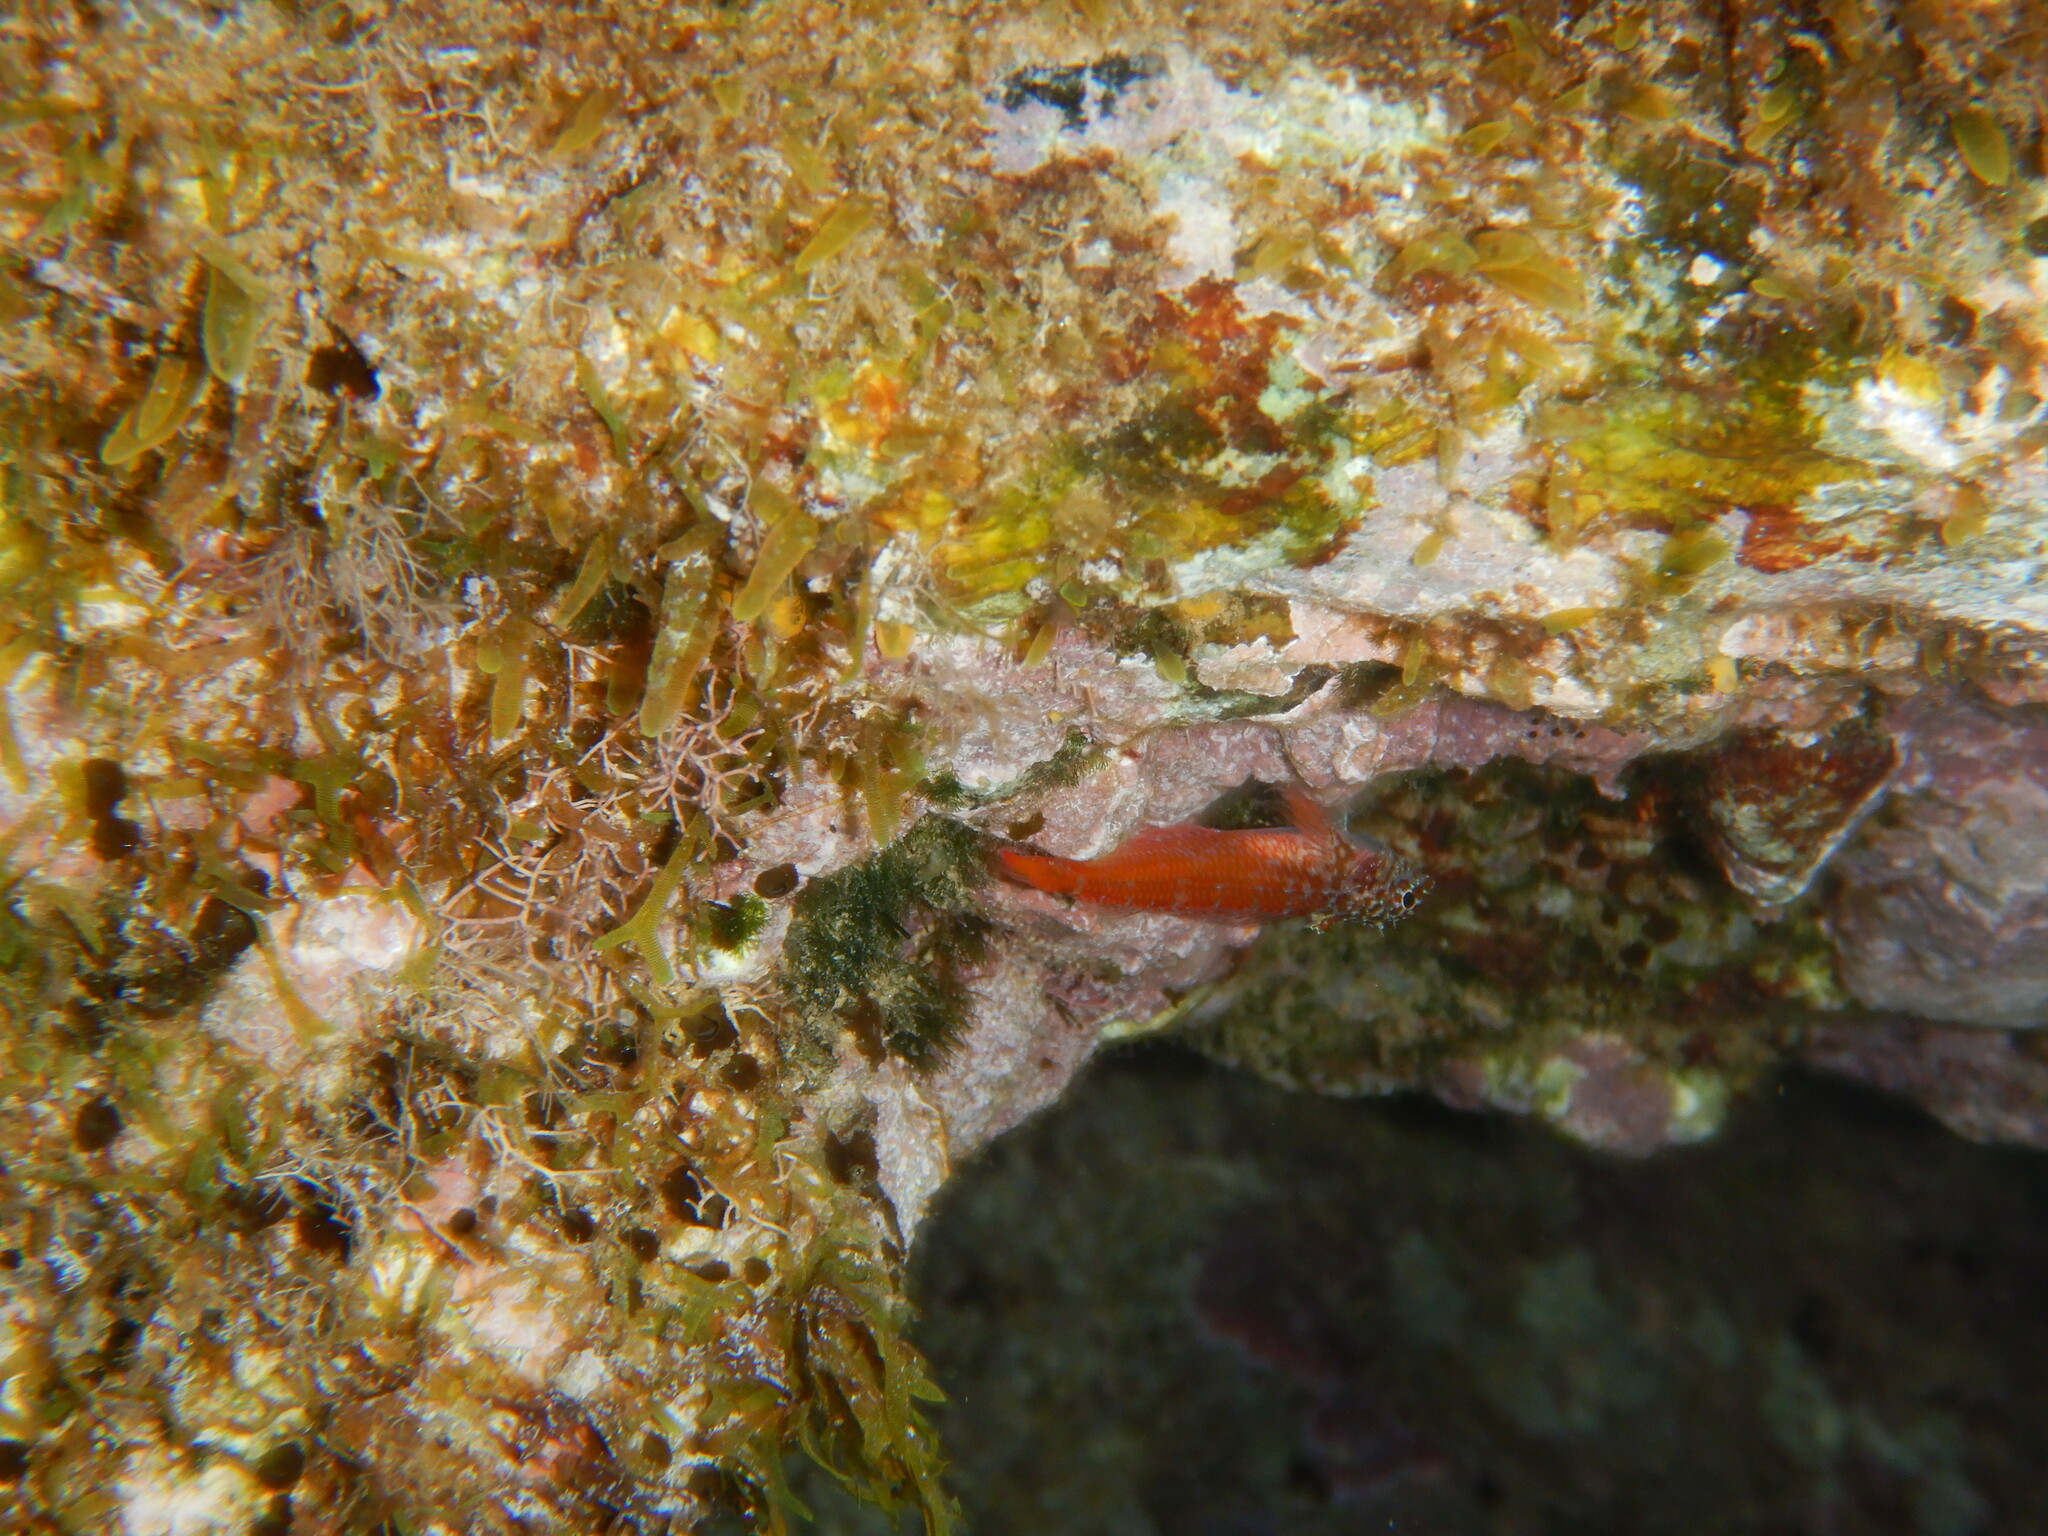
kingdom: Animalia
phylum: Chordata
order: Perciformes
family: Tripterygiidae
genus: Tripterygion
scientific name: Tripterygion melanurum
